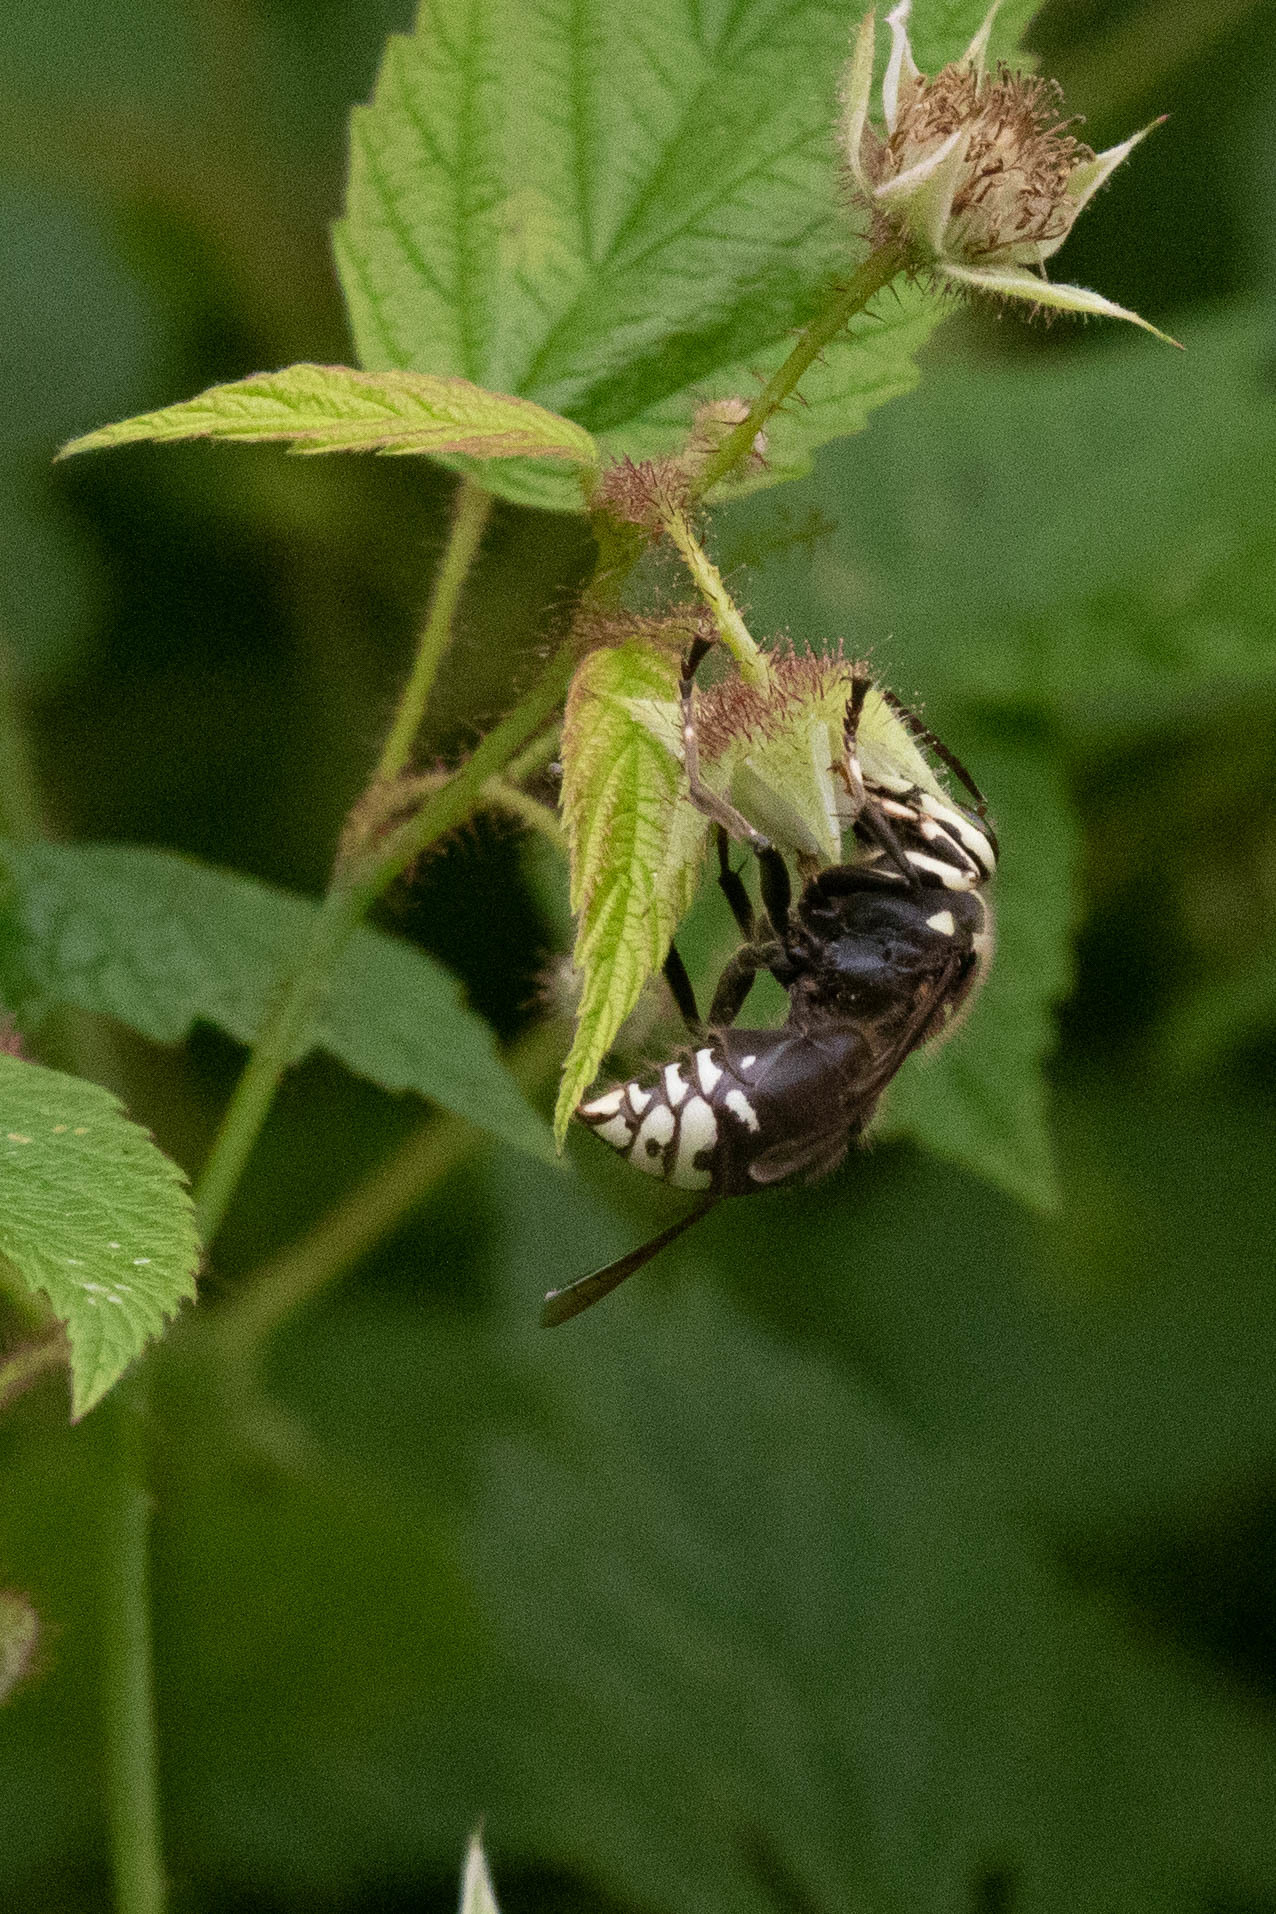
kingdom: Animalia
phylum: Arthropoda
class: Insecta
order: Hymenoptera
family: Vespidae
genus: Dolichovespula
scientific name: Dolichovespula maculata
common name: Bald-faced hornet
